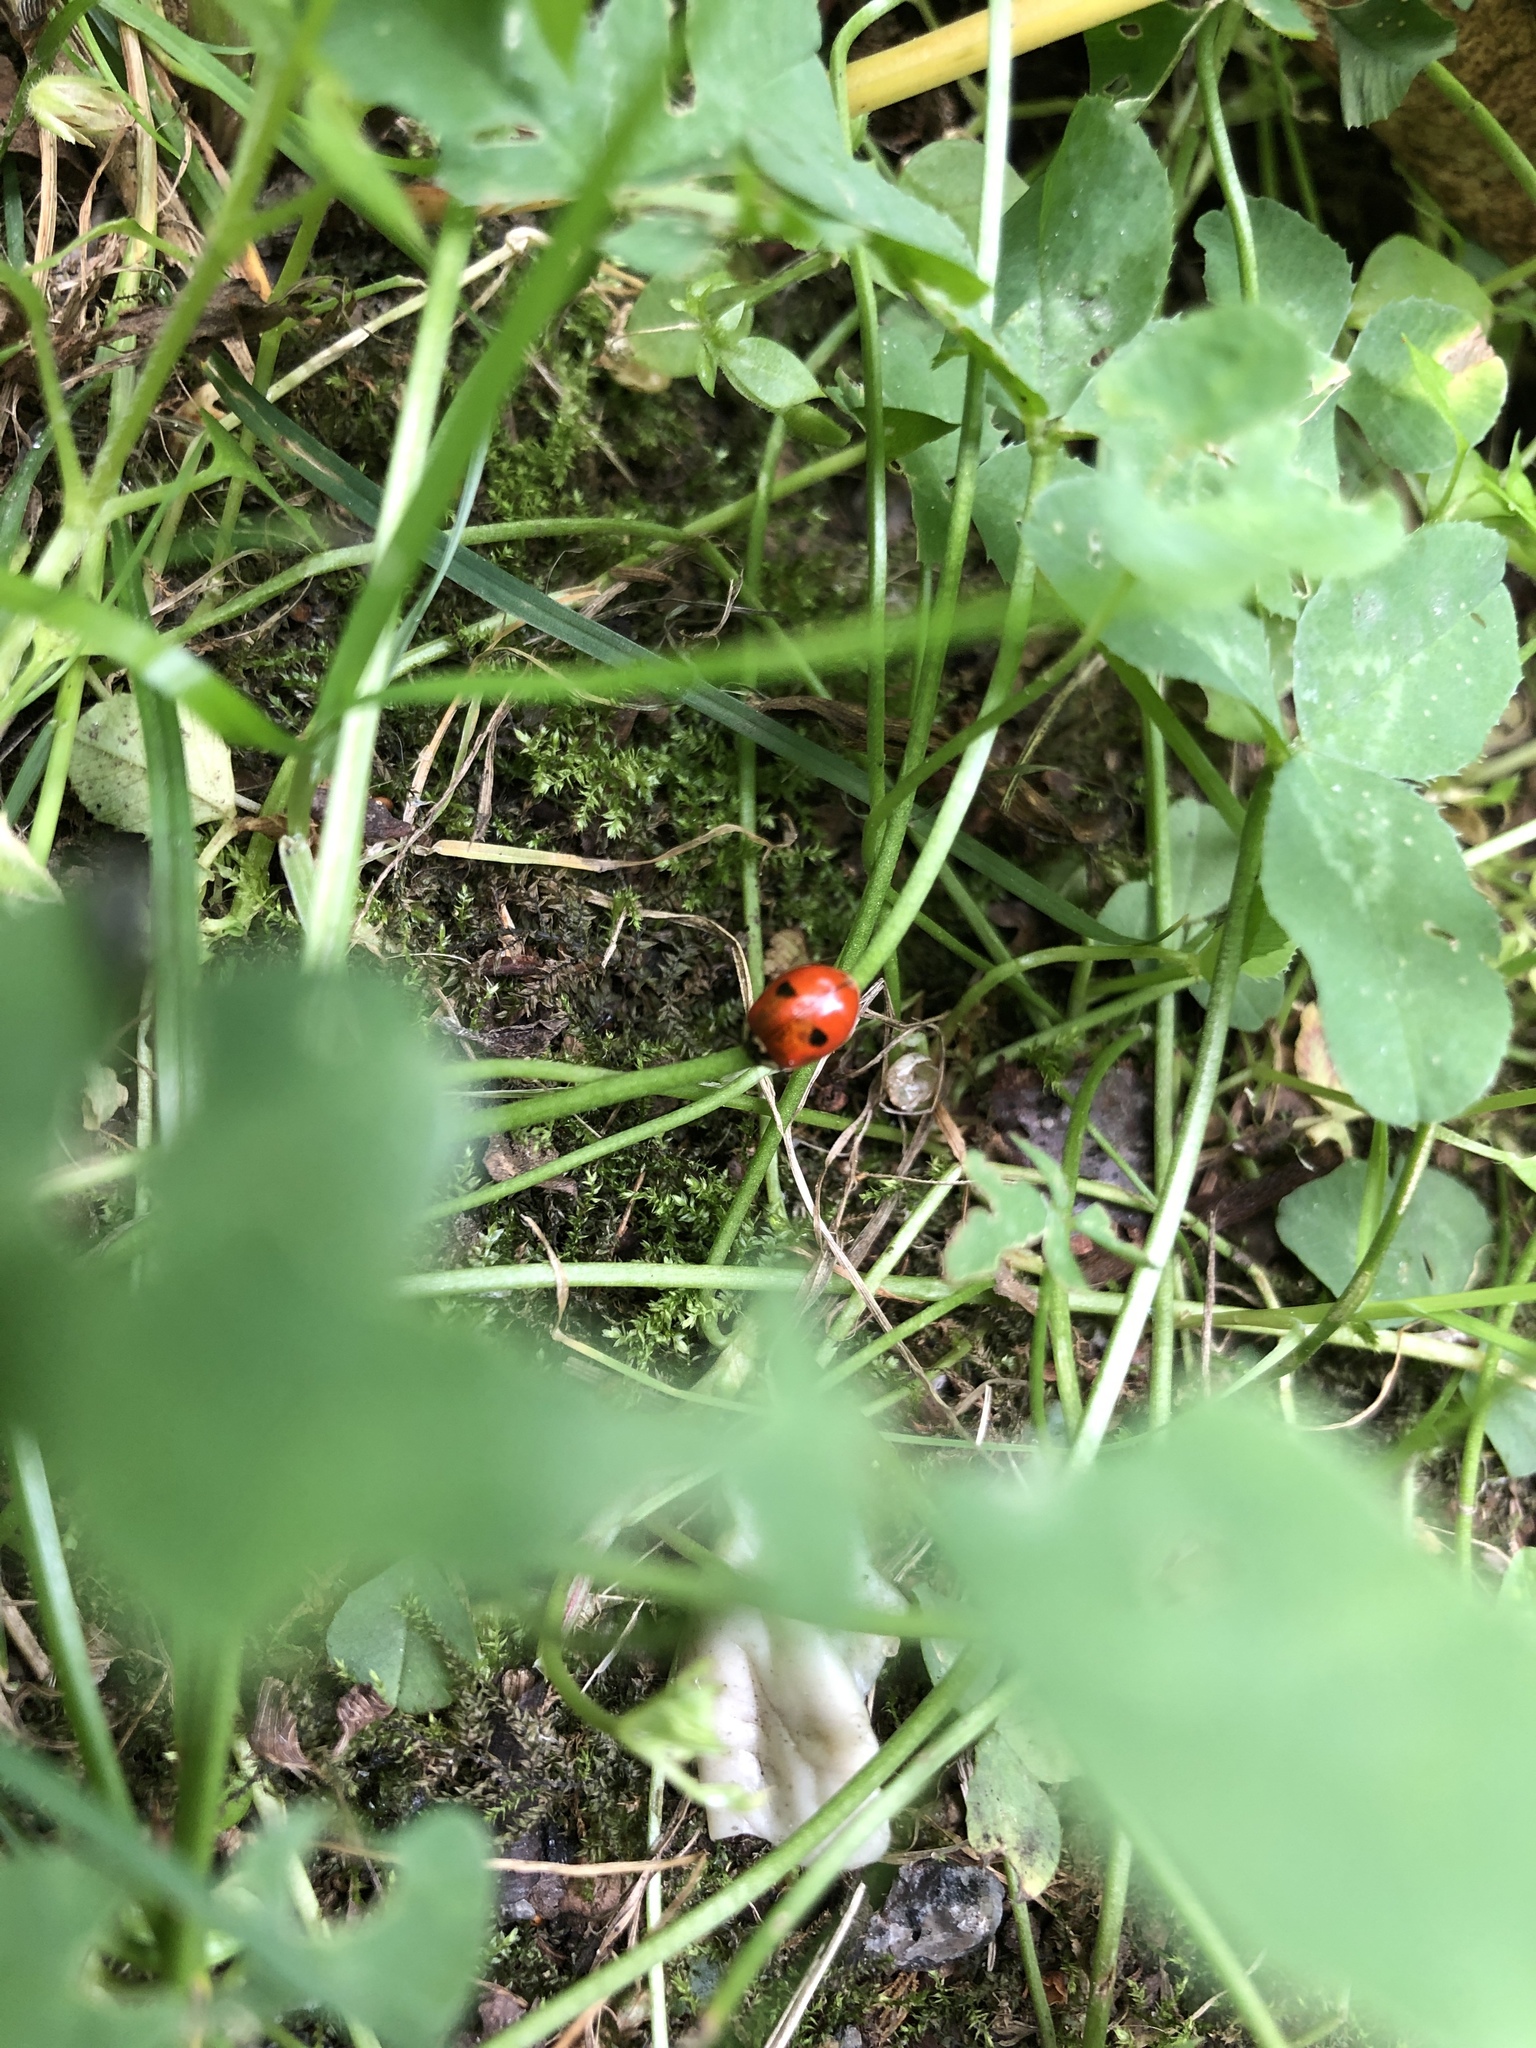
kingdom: Animalia
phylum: Arthropoda
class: Insecta
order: Coleoptera
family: Coccinellidae
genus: Adalia
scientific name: Adalia bipunctata
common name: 2-spot ladybird
